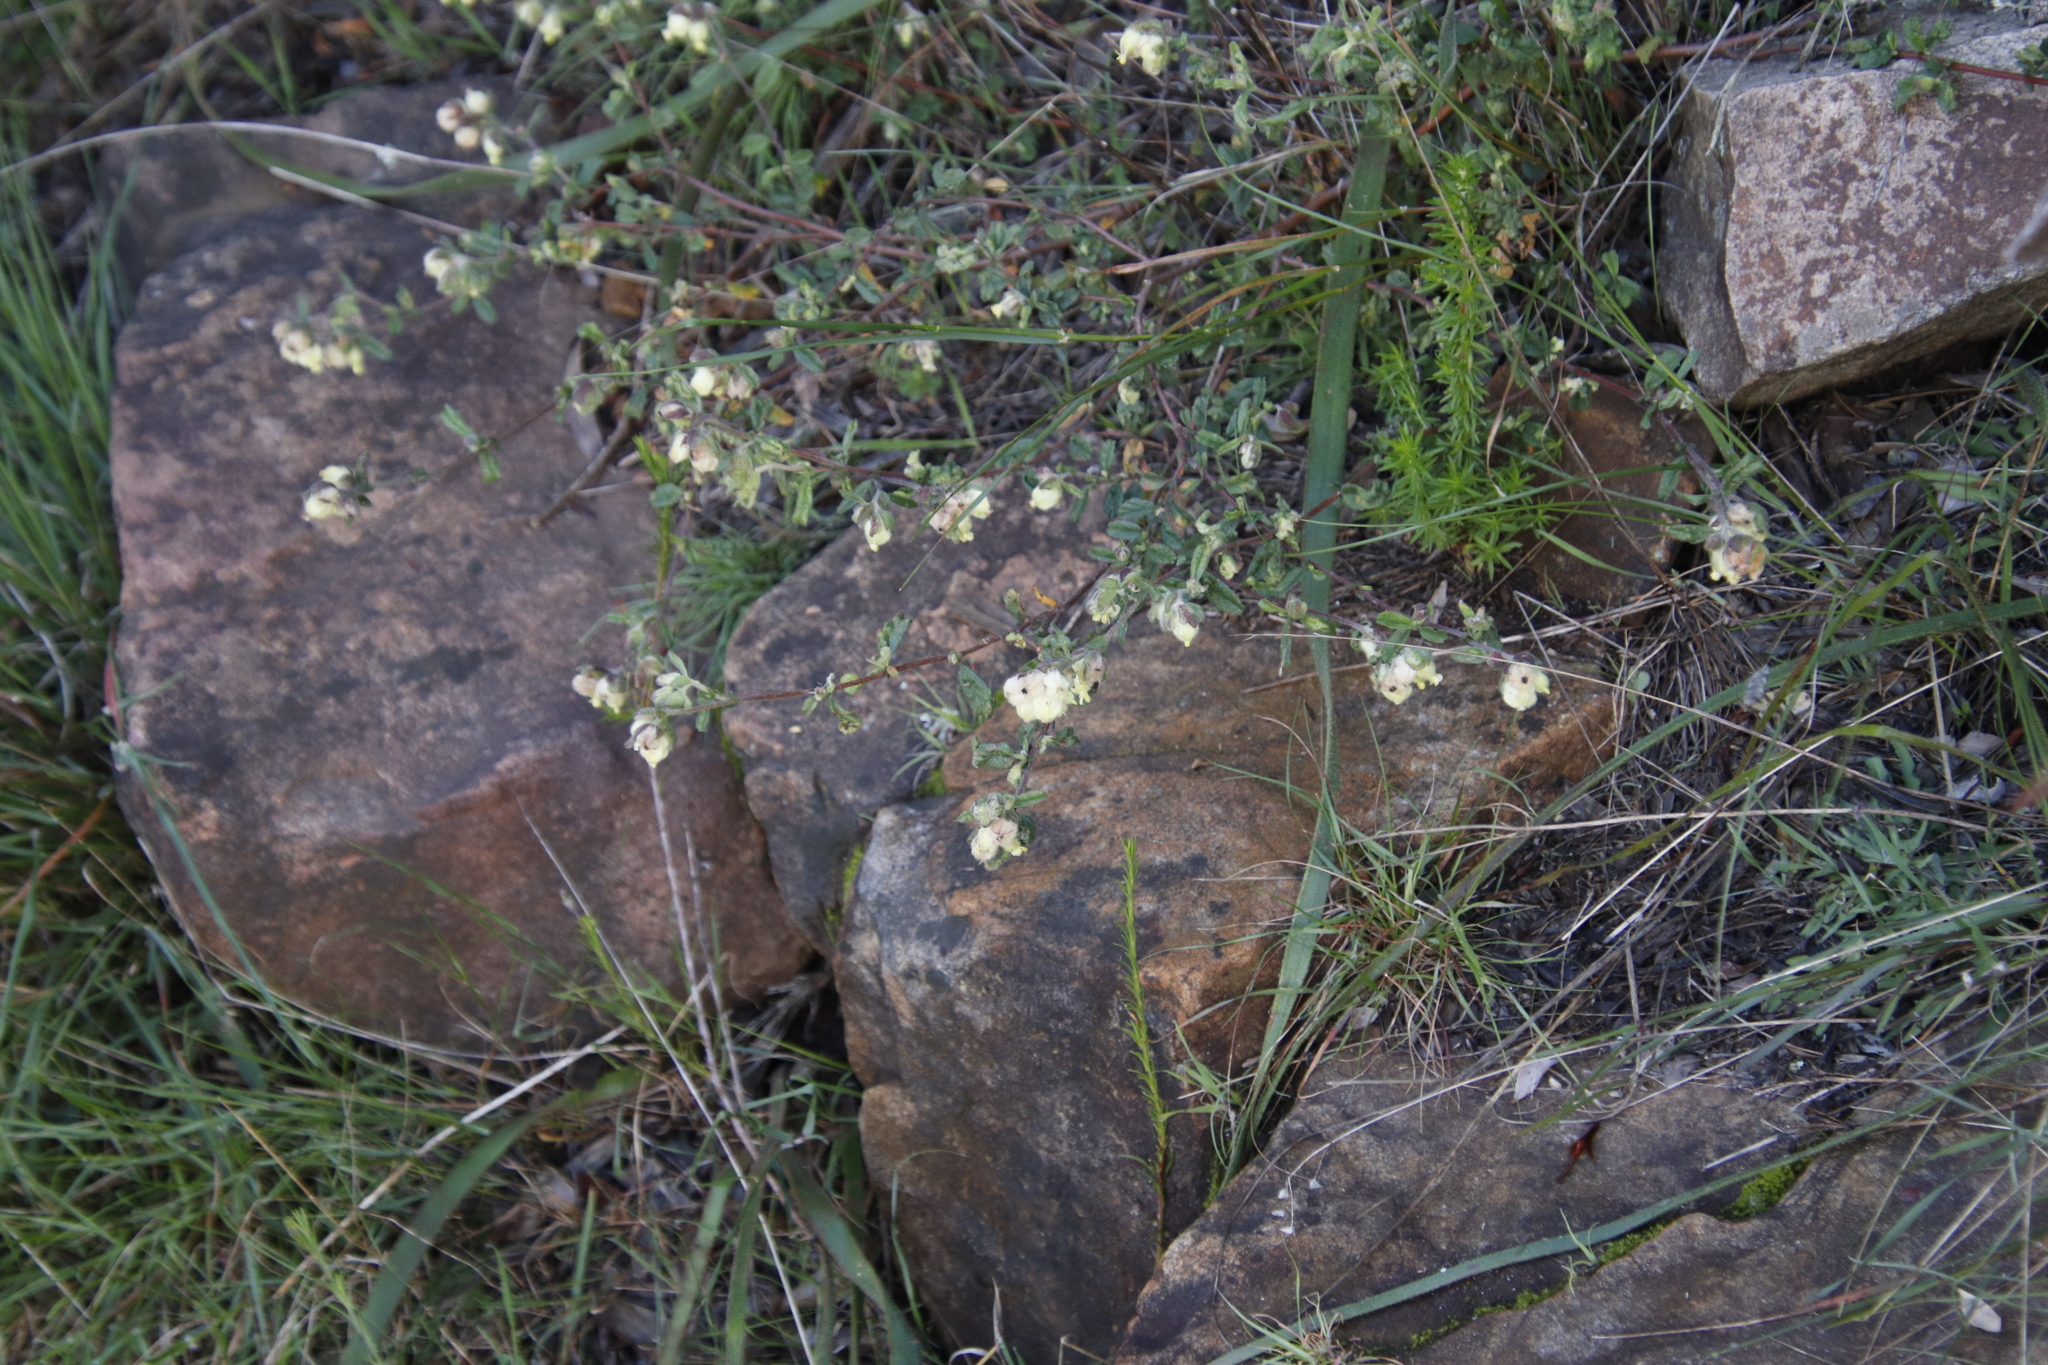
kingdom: Plantae
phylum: Tracheophyta
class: Magnoliopsida
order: Malvales
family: Malvaceae
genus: Hermannia
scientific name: Hermannia hyssopifolia
